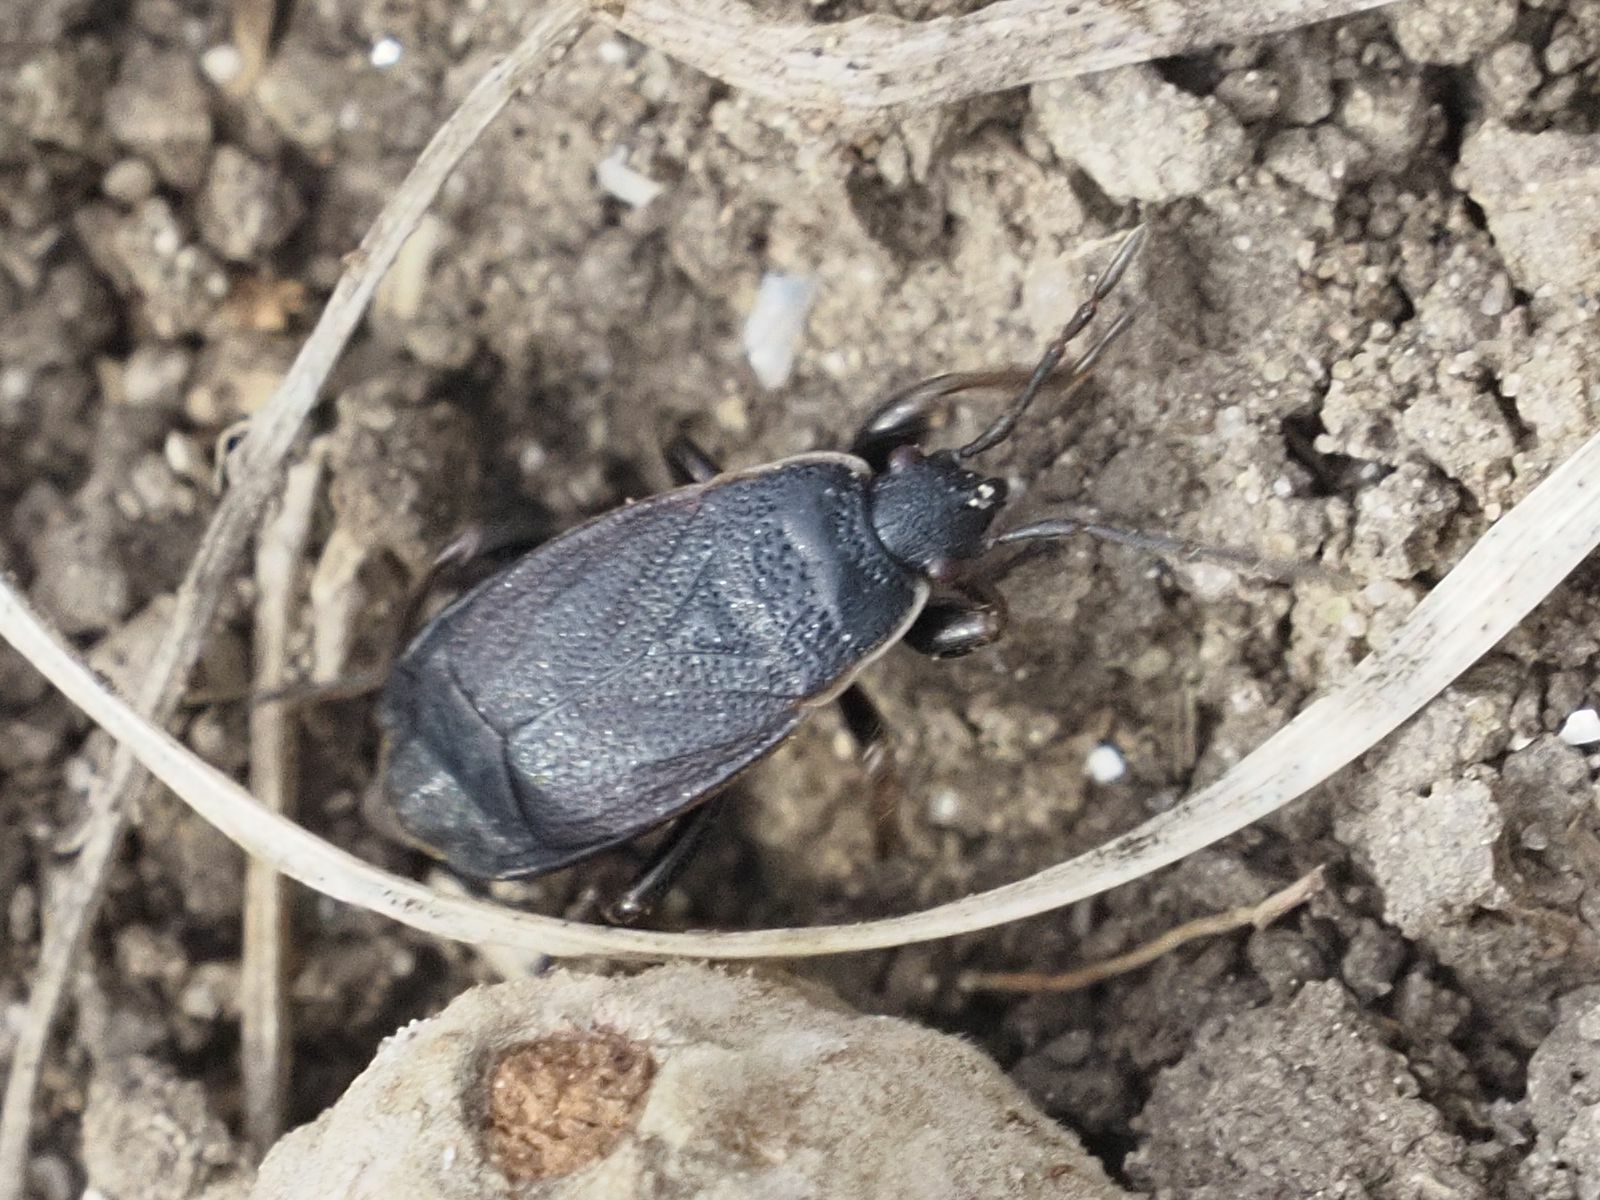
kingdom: Animalia
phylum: Arthropoda
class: Insecta
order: Hemiptera
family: Pyrrhocoridae
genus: Pyrrhocoris
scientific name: Pyrrhocoris marginatus
